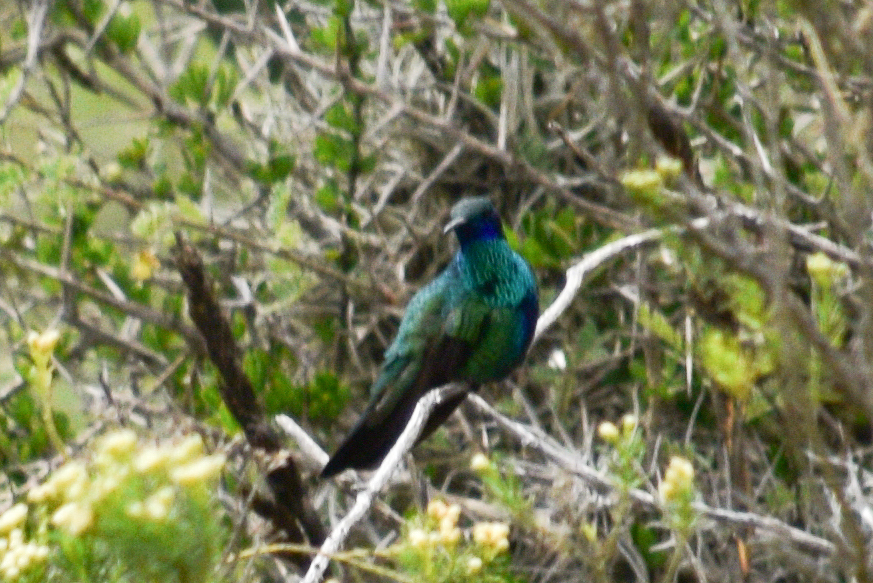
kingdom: Animalia
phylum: Chordata
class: Aves
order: Apodiformes
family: Trochilidae
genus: Colibri
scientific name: Colibri coruscans
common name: Sparkling violetear
